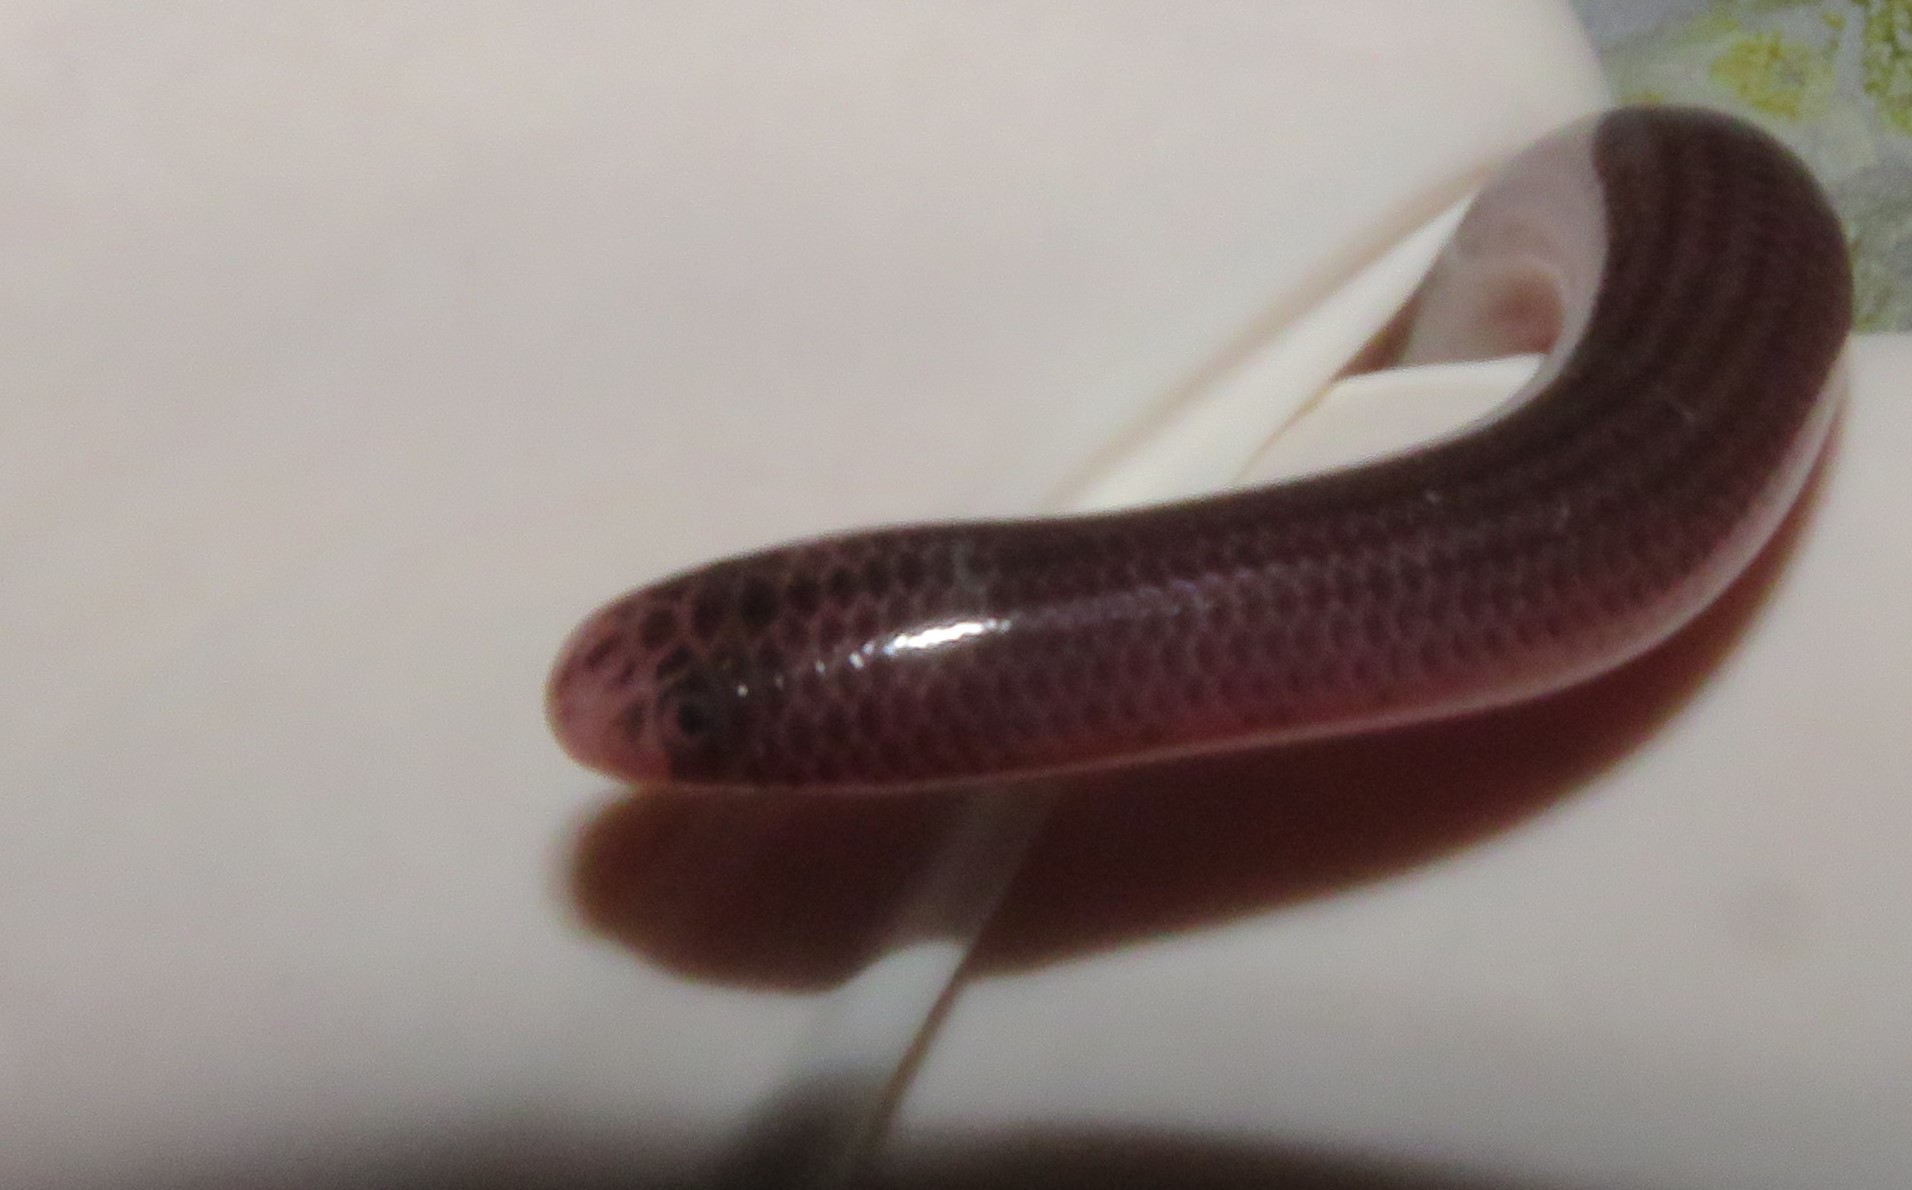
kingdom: Animalia
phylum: Chordata
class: Squamata
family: Typhlopidae
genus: Amerotyphlops
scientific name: Amerotyphlops brongersmianus
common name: Brongersma's worm snake
